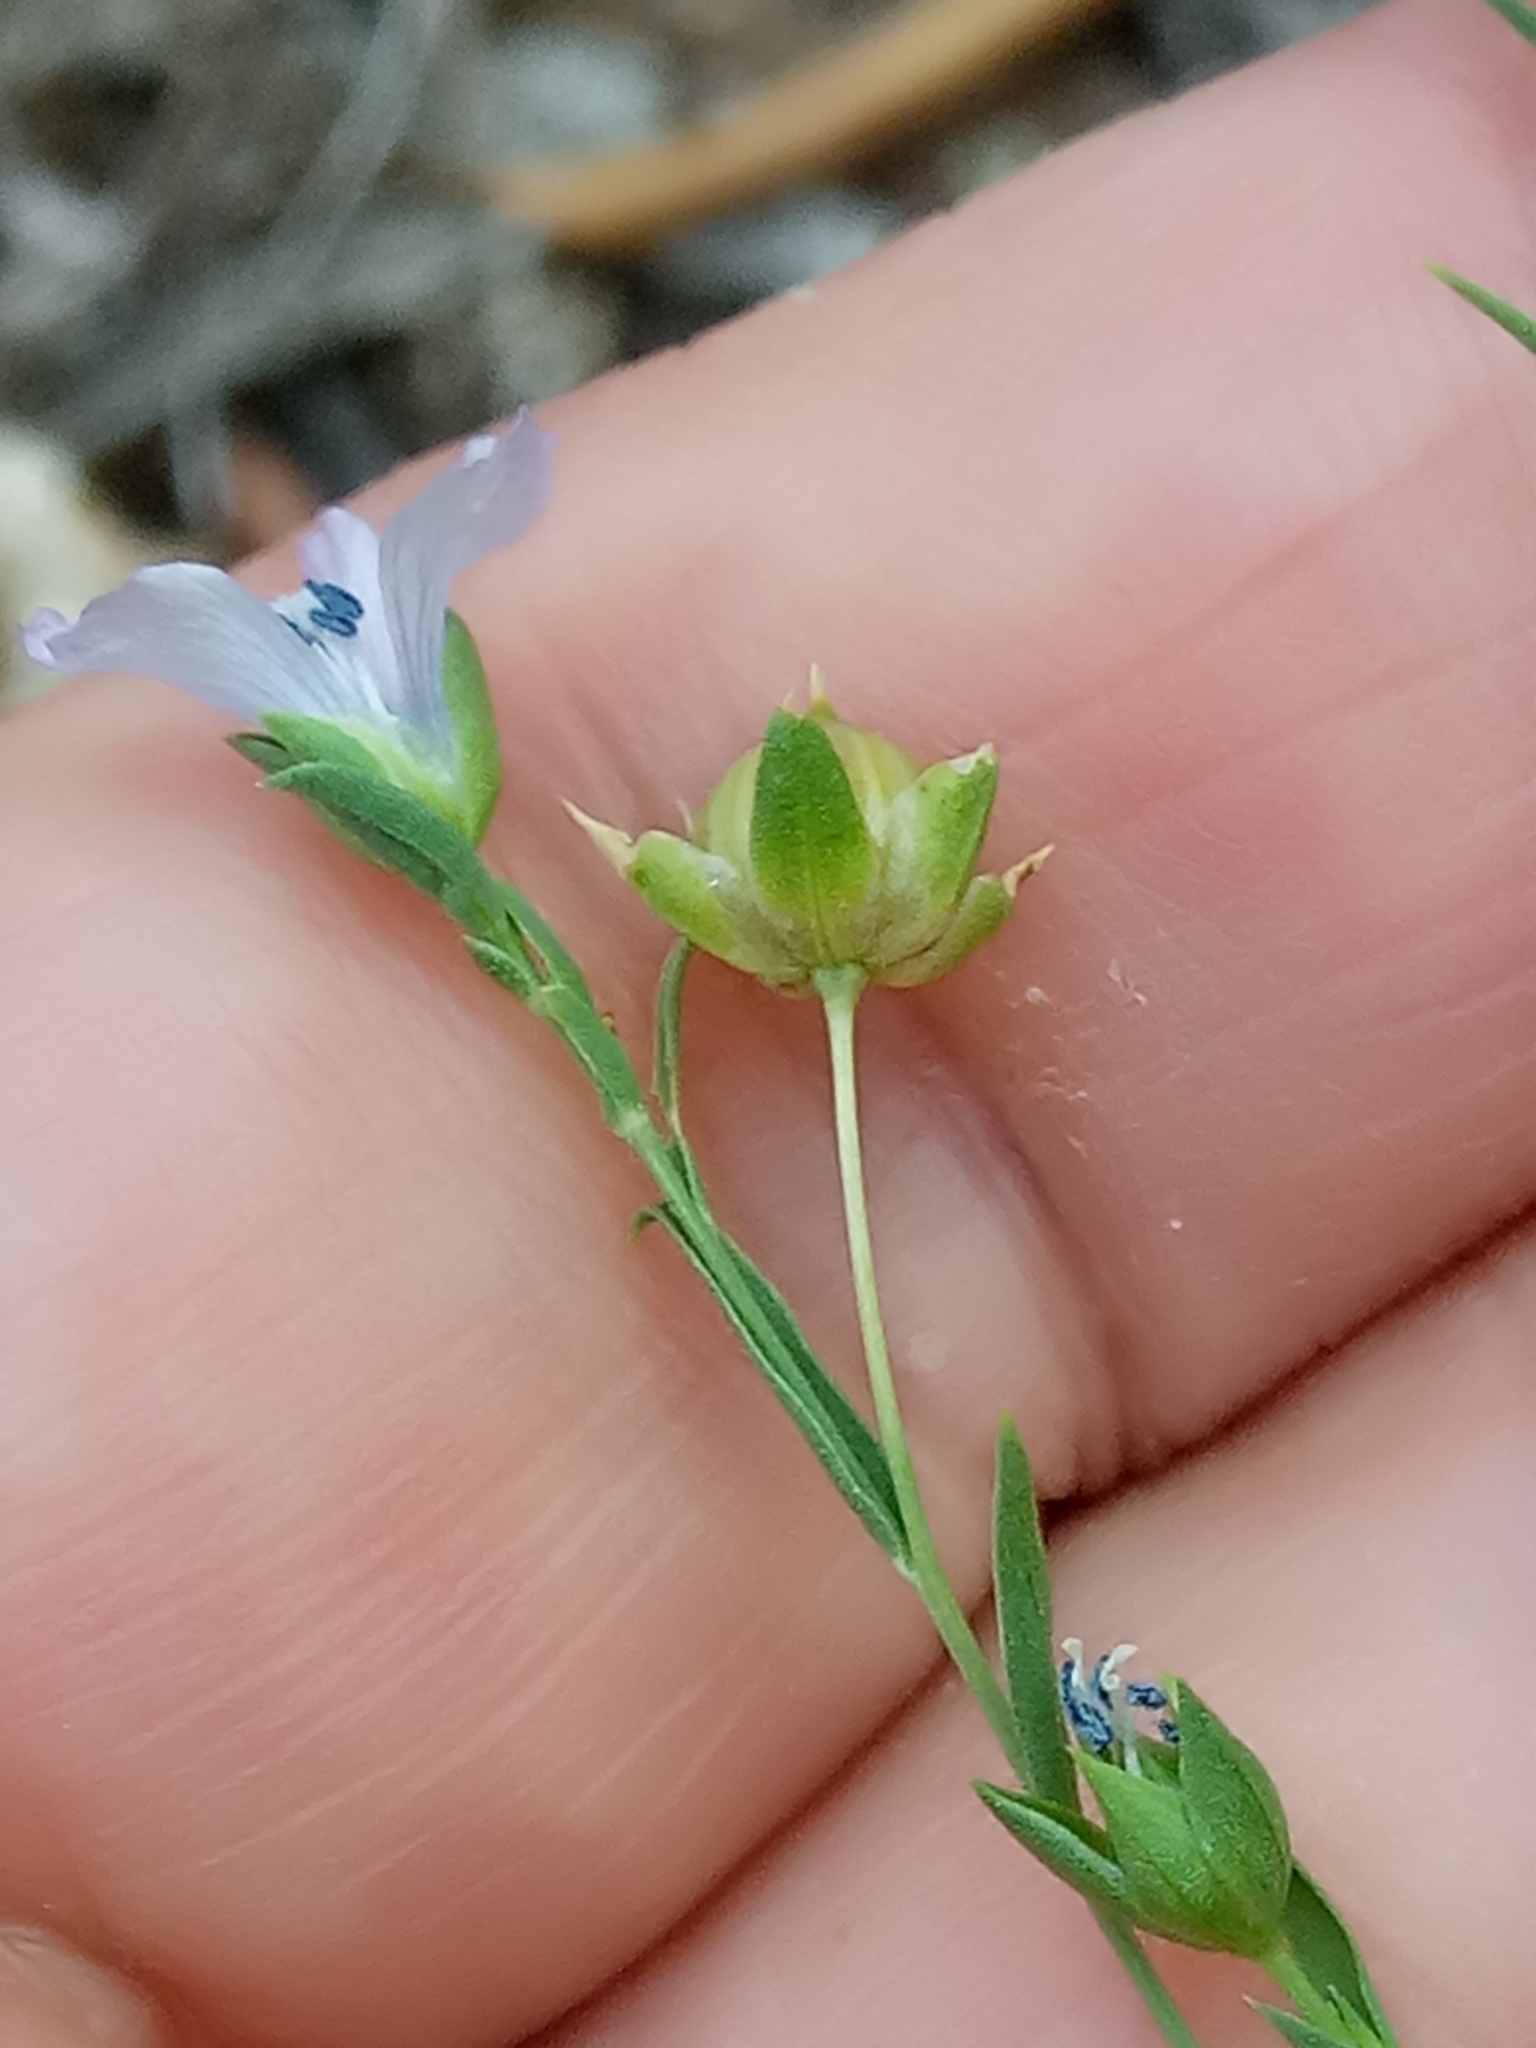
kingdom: Plantae
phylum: Tracheophyta
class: Magnoliopsida
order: Malpighiales
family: Linaceae
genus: Linum
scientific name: Linum bienne
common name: Pale flax
